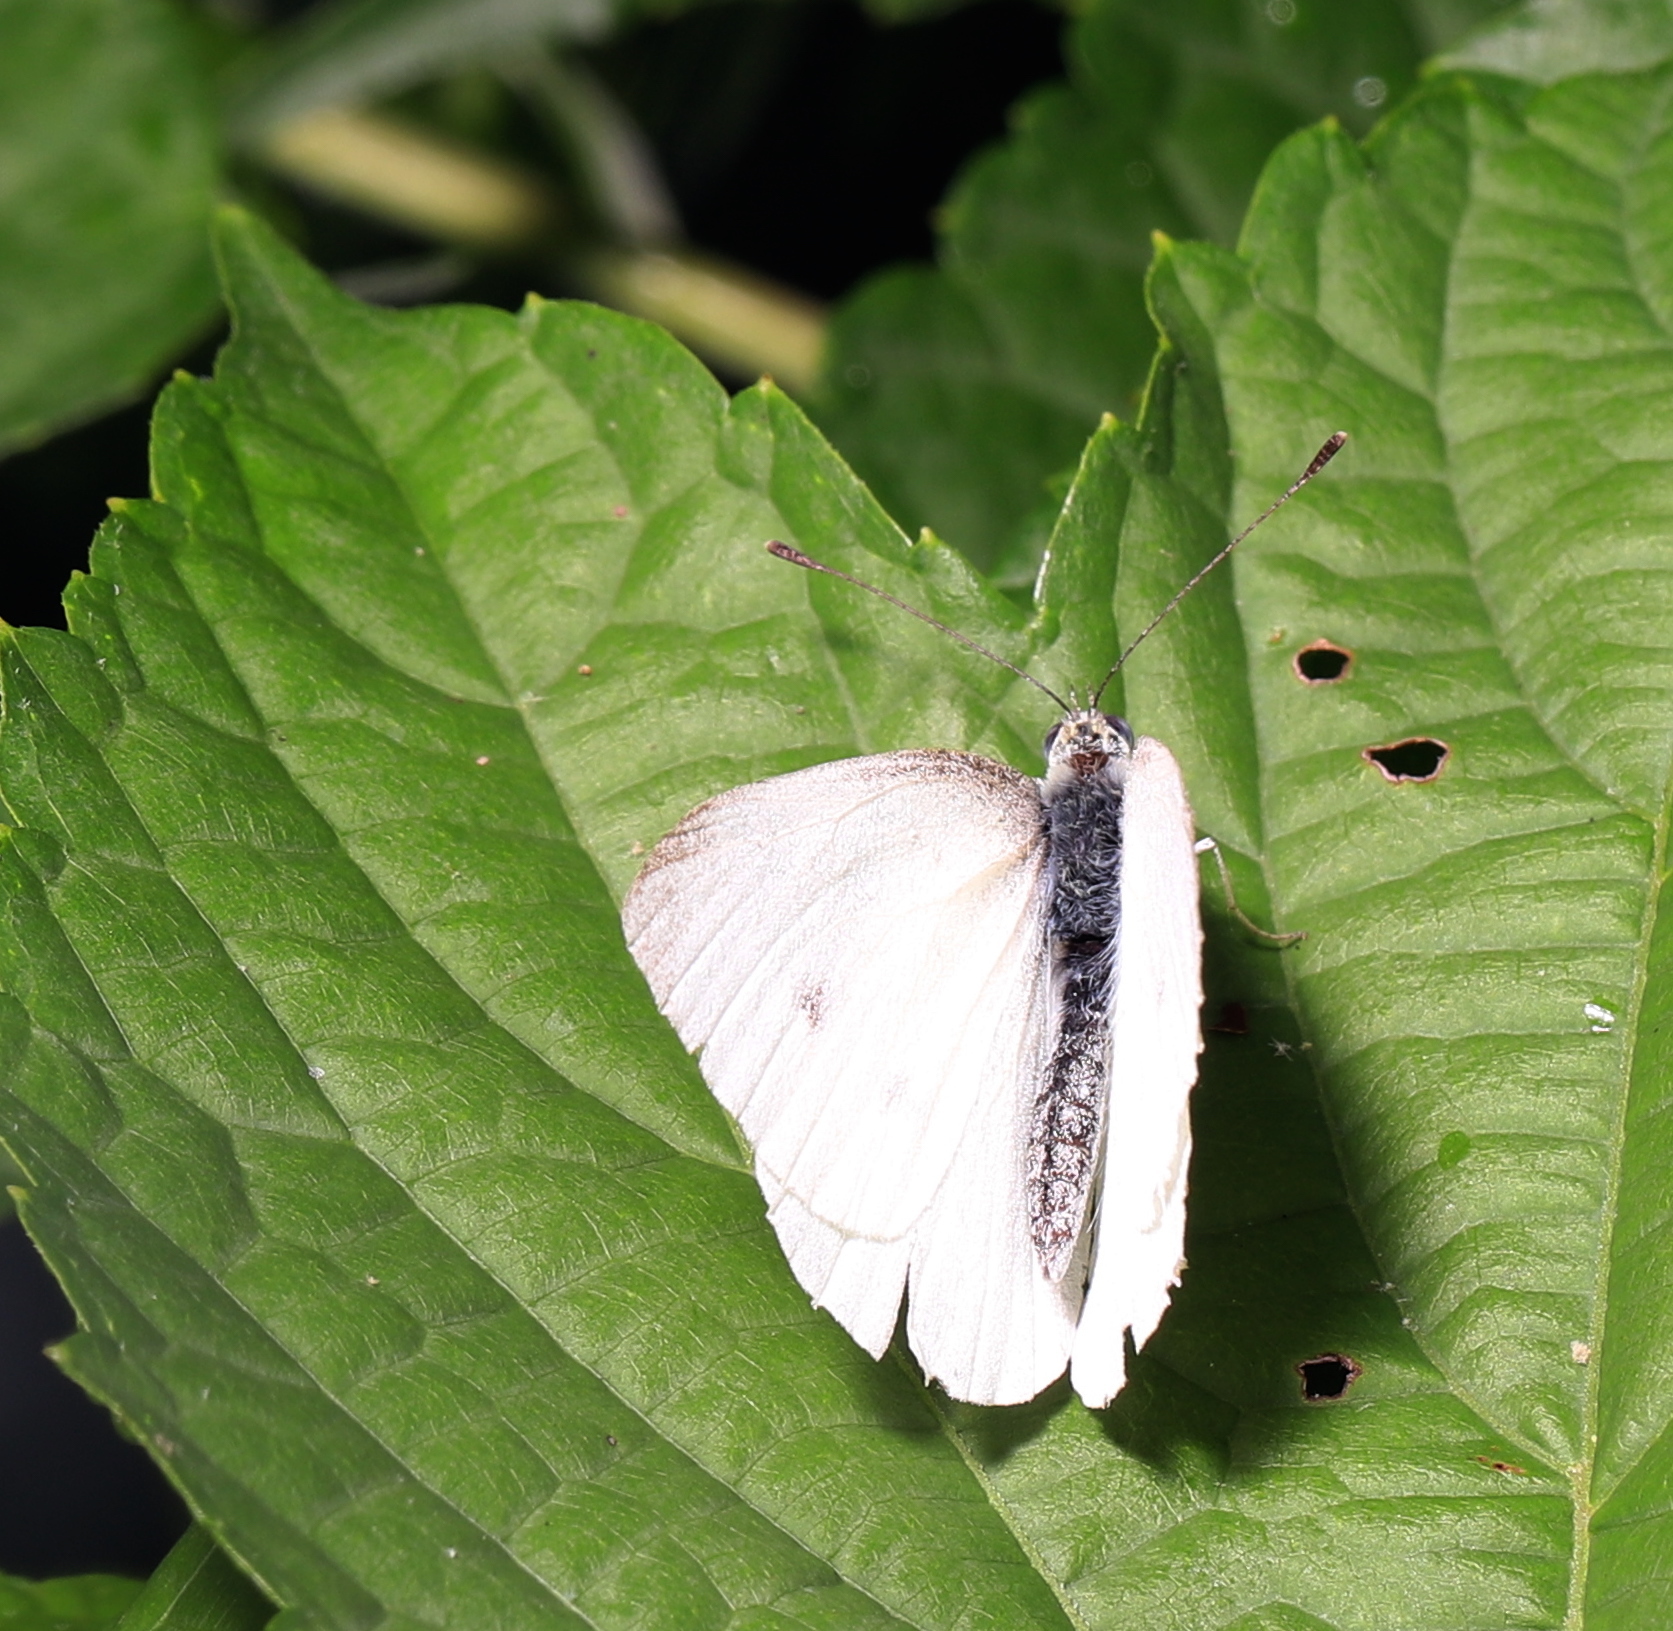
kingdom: Animalia
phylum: Arthropoda
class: Insecta
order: Lepidoptera
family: Pieridae
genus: Pieris
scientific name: Pieris rapae
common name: Small white
